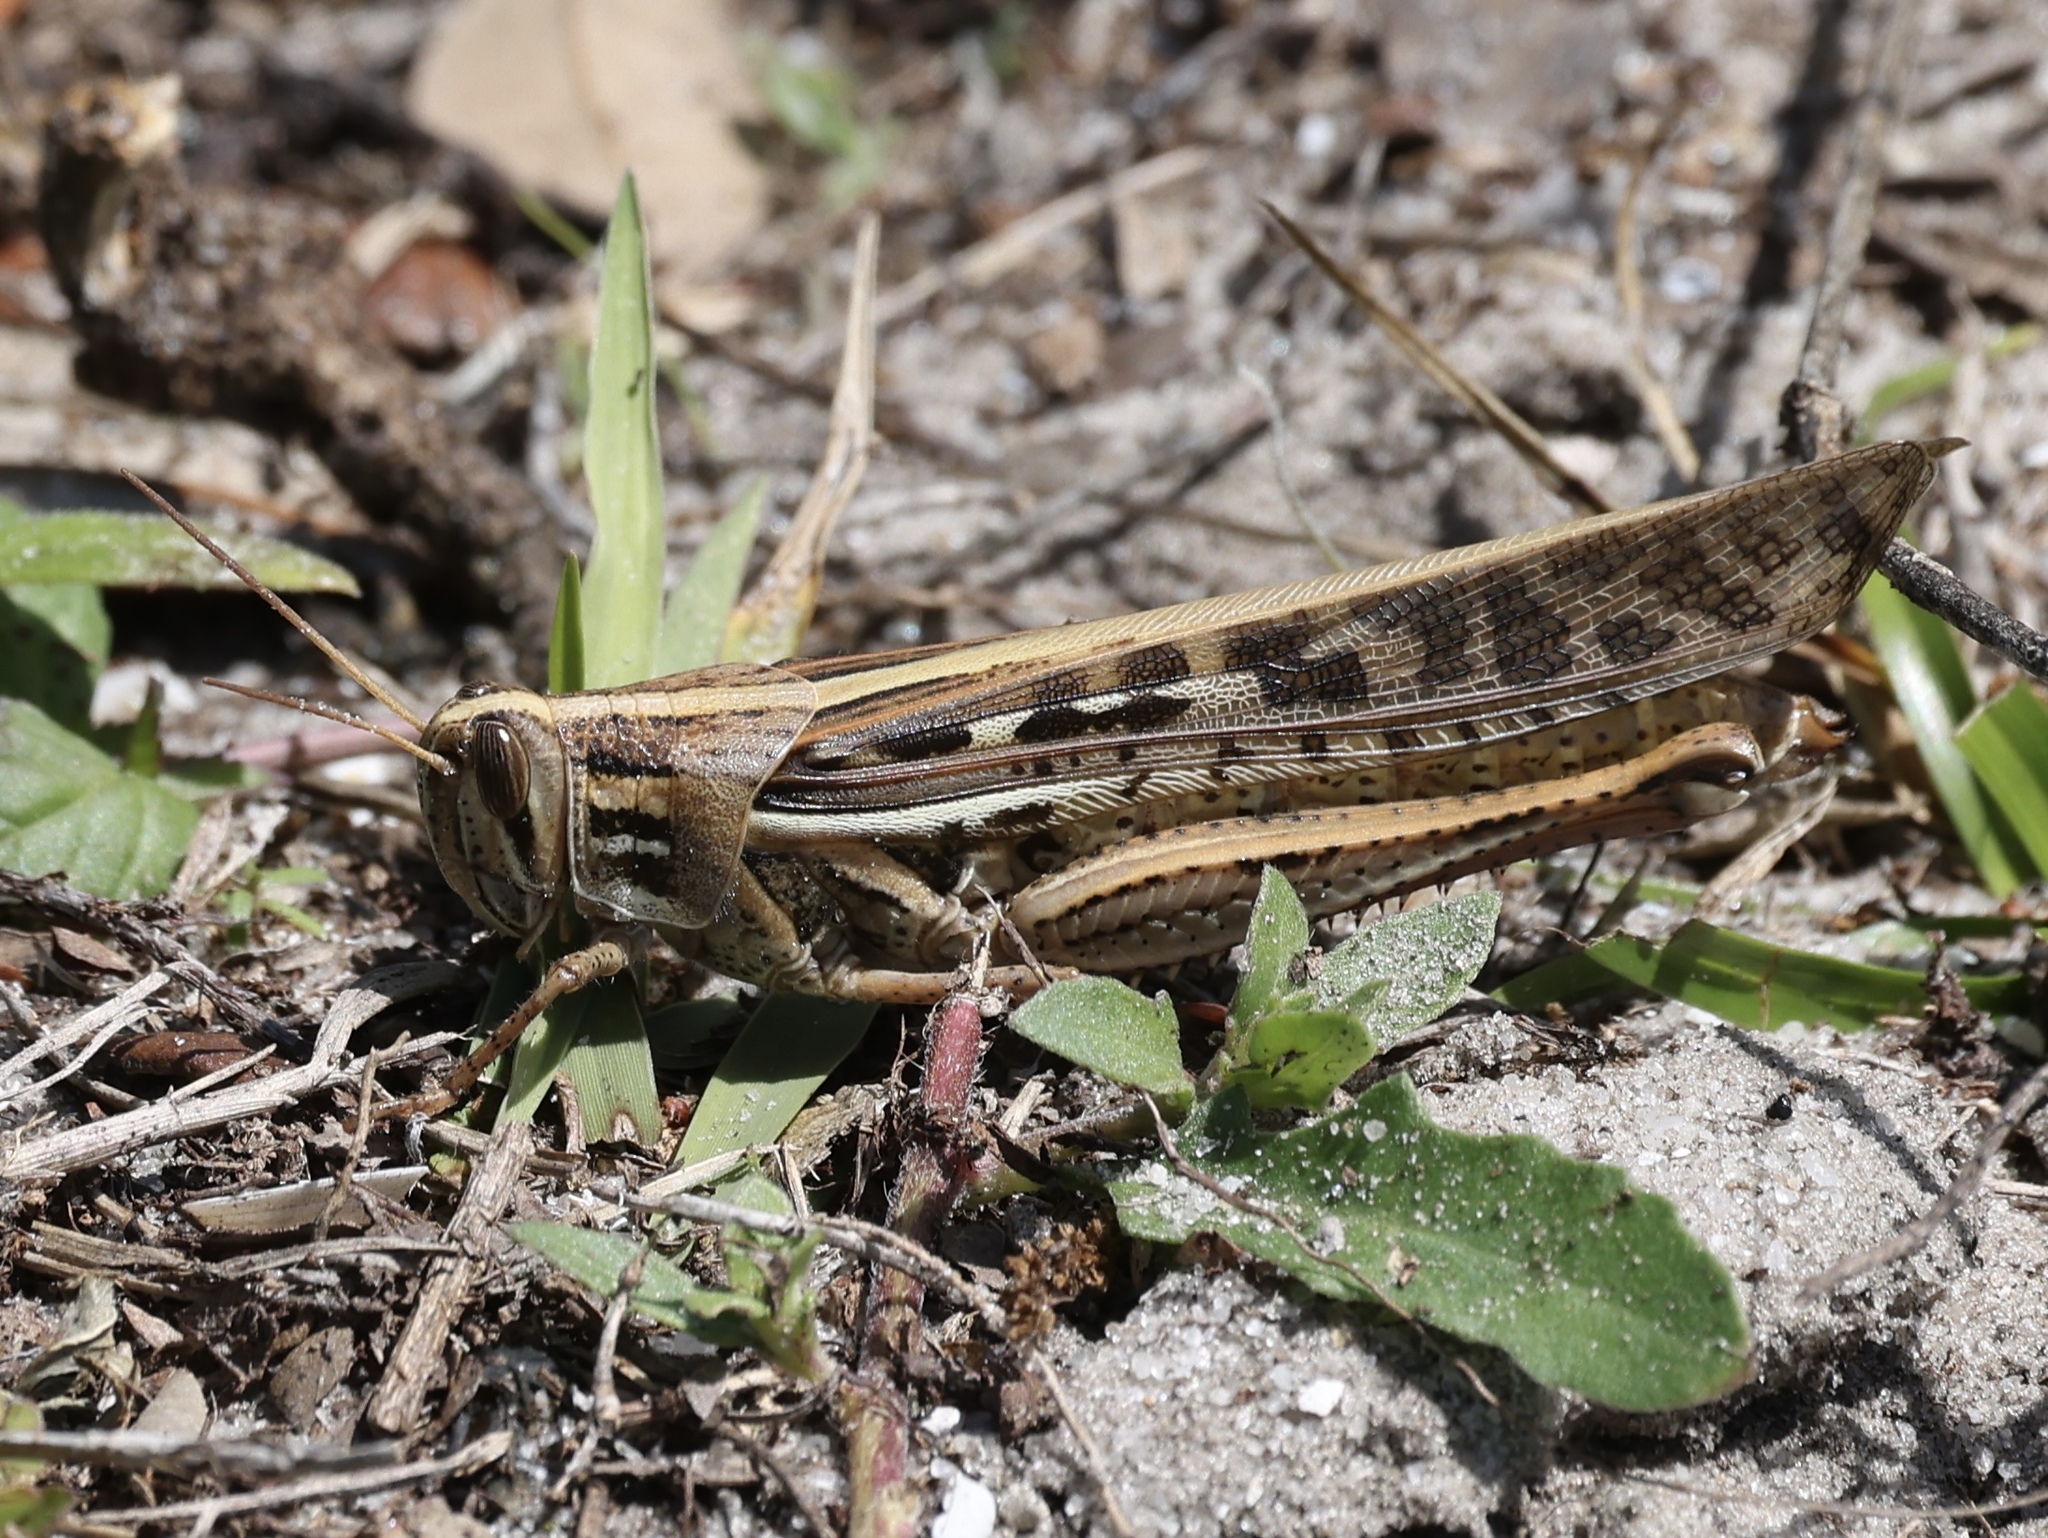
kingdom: Animalia
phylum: Arthropoda
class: Insecta
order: Orthoptera
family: Acrididae
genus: Schistocerca
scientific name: Schistocerca americana
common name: American bird locust
